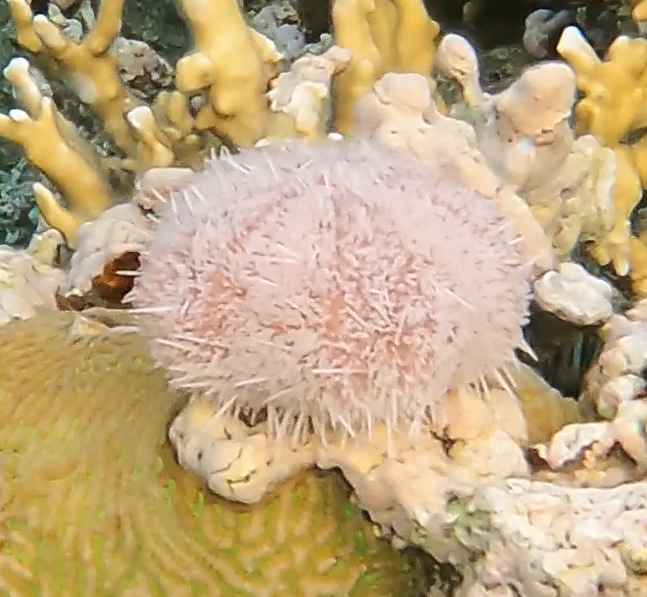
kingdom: Animalia
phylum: Echinodermata
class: Echinoidea
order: Camarodonta
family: Toxopneustidae
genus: Tripneustes
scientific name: Tripneustes gratilla
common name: Bischofsmützenseeigel
